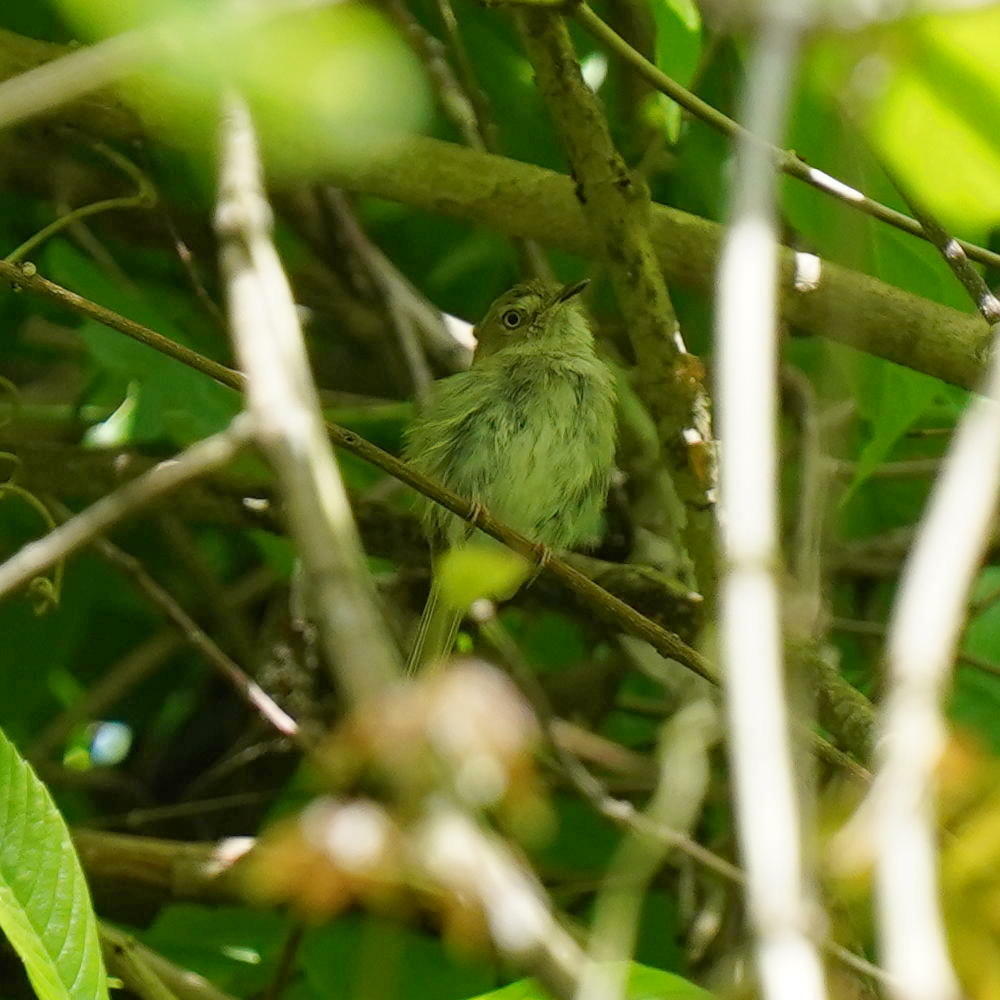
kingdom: Animalia
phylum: Chordata
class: Aves
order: Passeriformes
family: Tyrannidae
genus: Atalotriccus
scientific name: Atalotriccus pilaris
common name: Pale-eyed pygmy-tyrant
